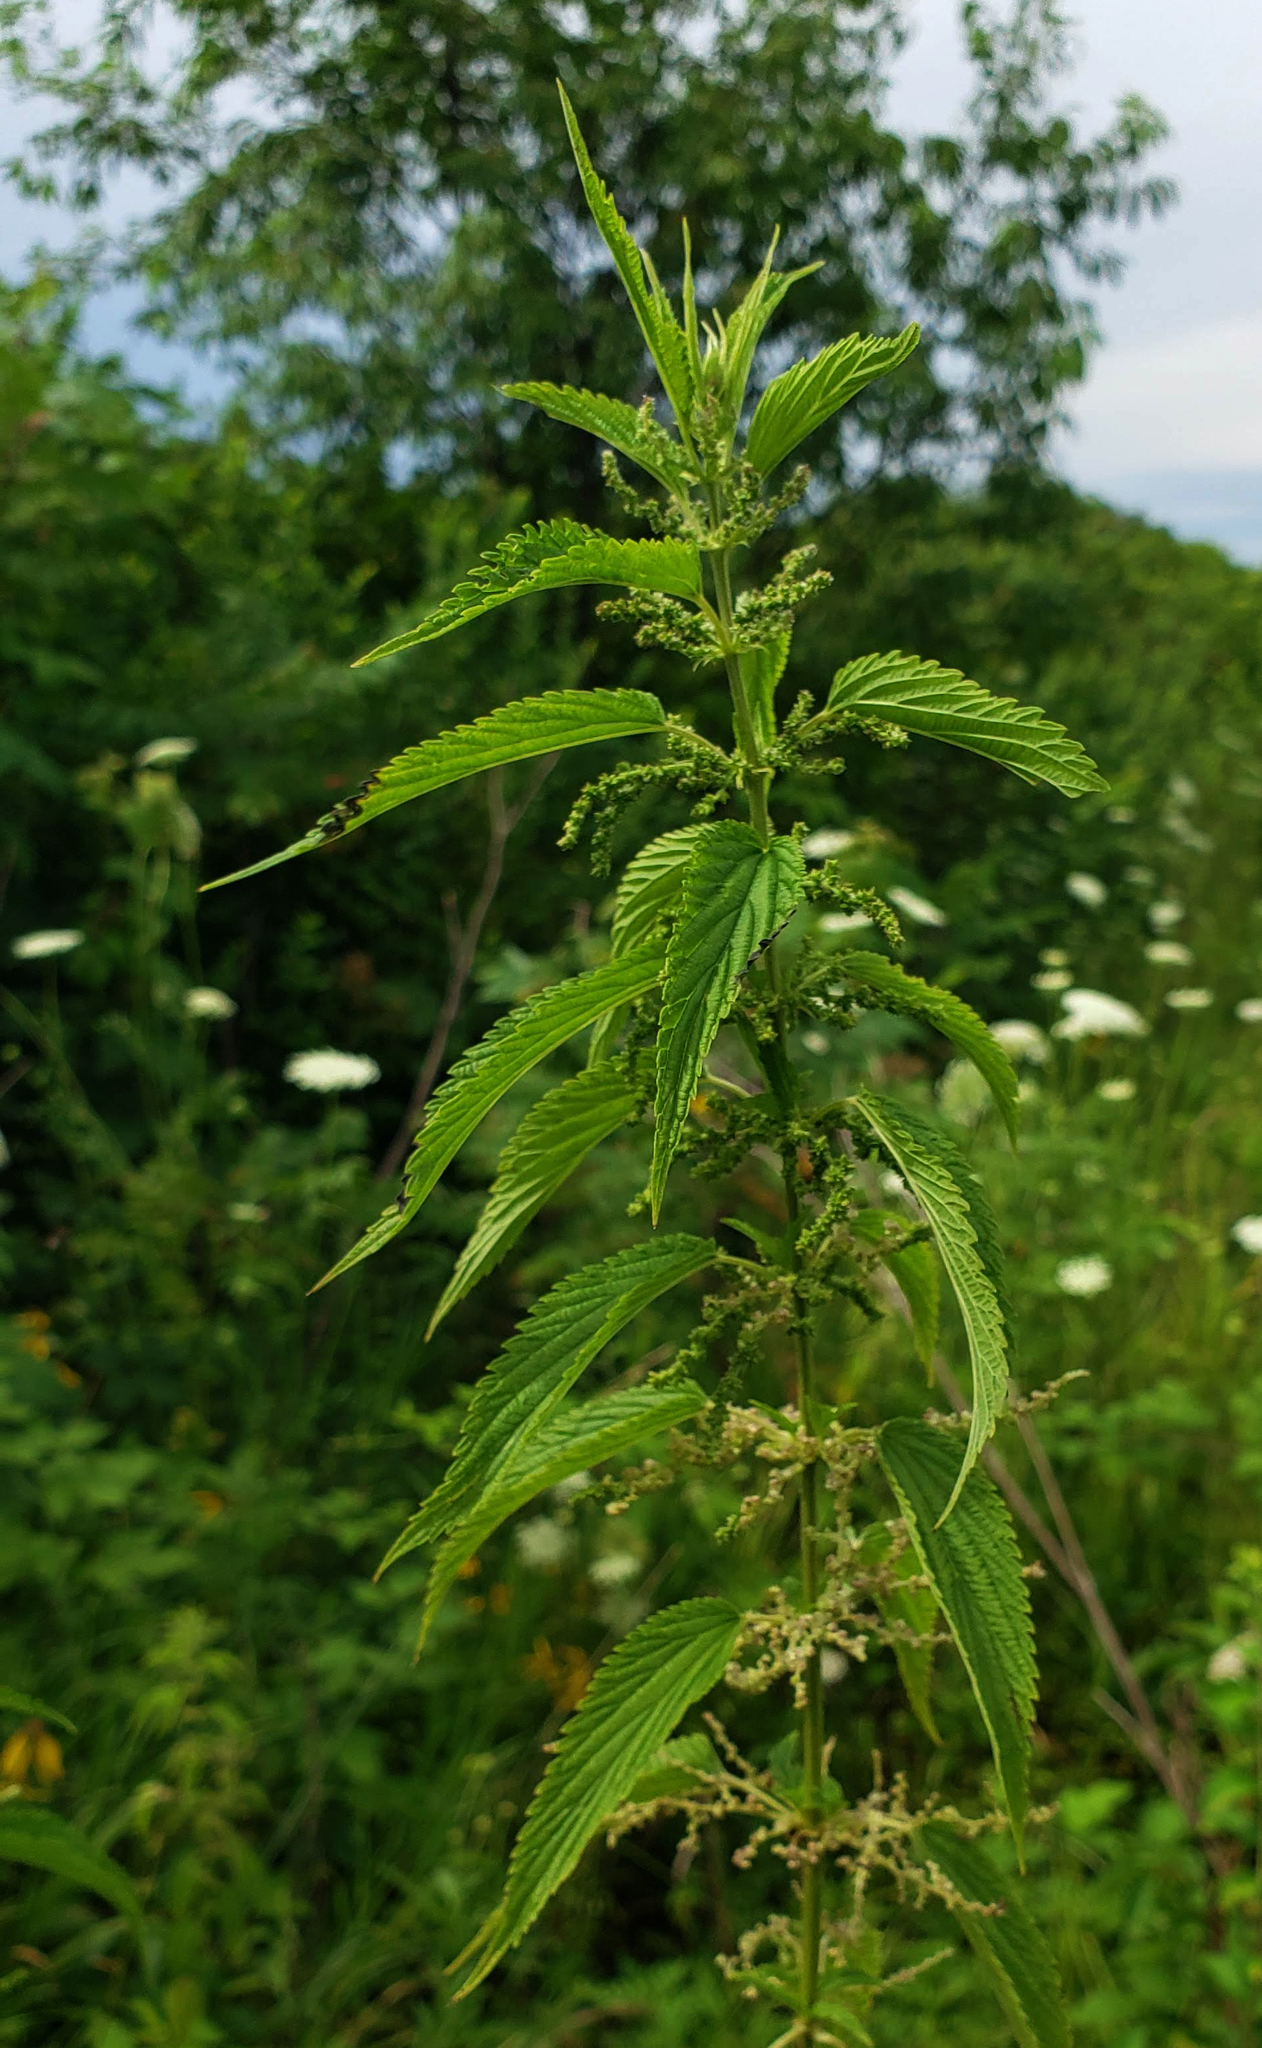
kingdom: Plantae
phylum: Tracheophyta
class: Magnoliopsida
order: Rosales
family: Urticaceae
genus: Urtica
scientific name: Urtica dioica
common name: Common nettle
